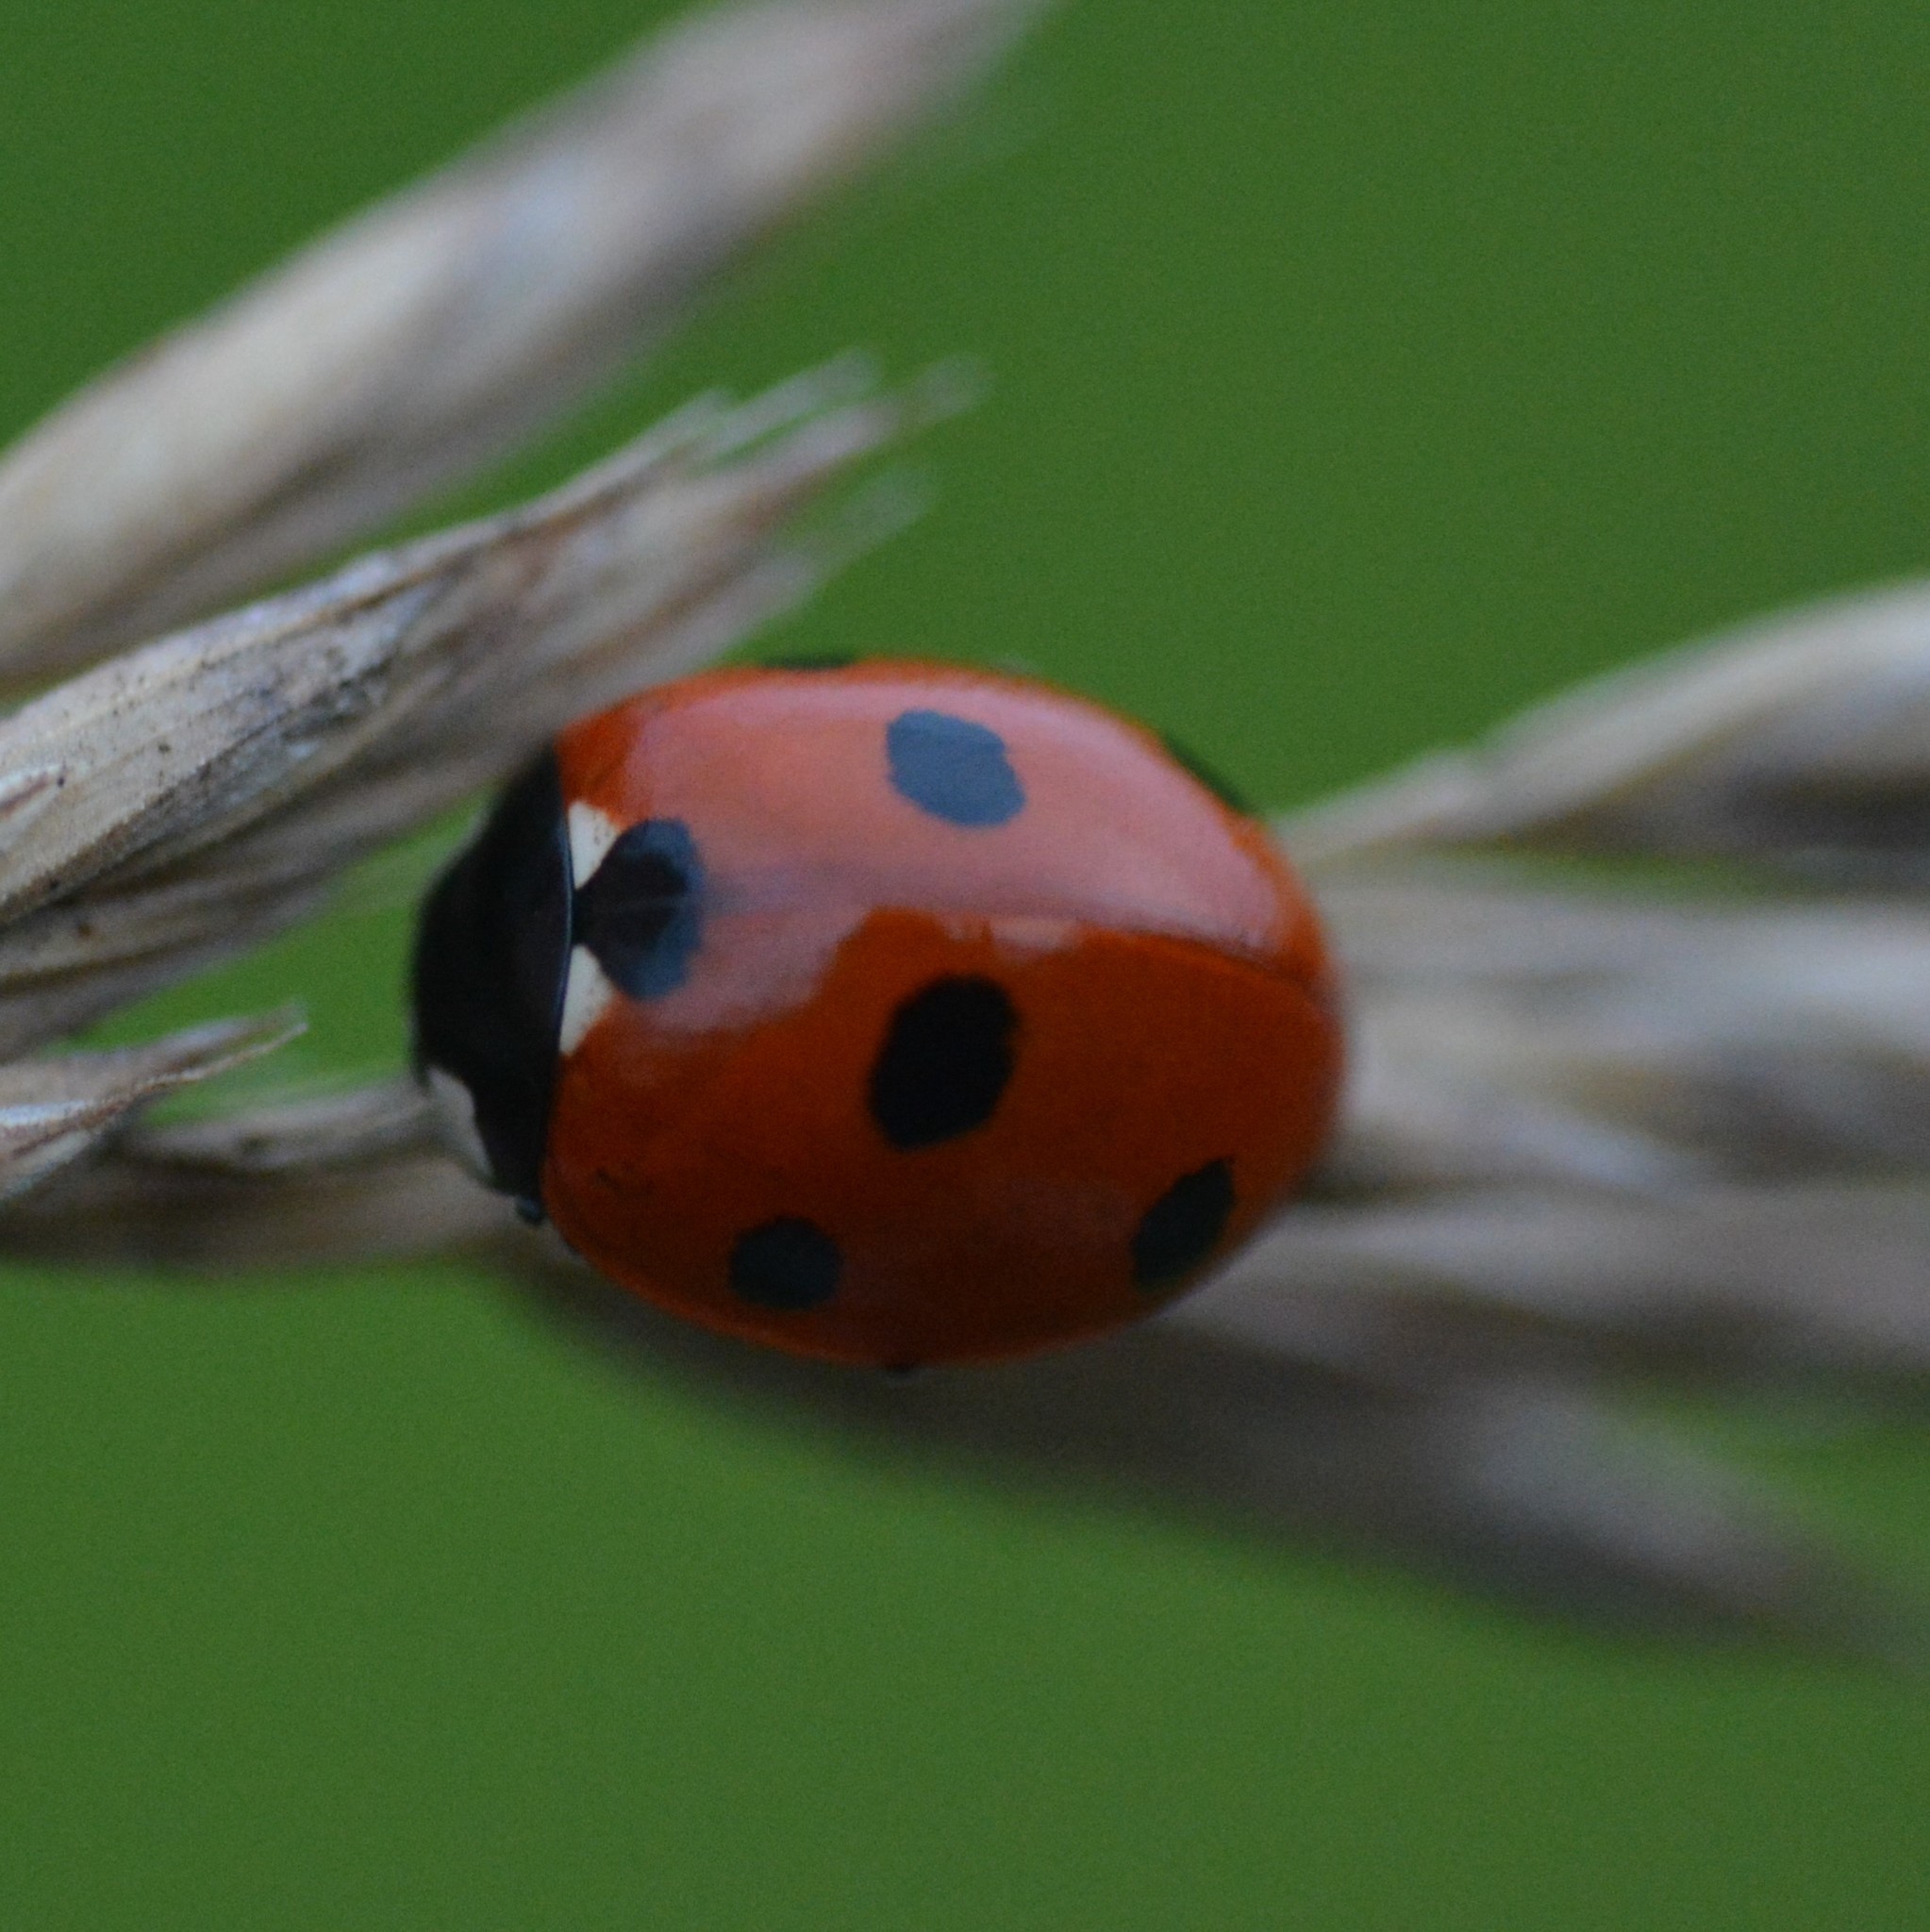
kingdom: Animalia
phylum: Arthropoda
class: Insecta
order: Coleoptera
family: Coccinellidae
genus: Coccinella
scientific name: Coccinella septempunctata
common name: Sevenspotted lady beetle
